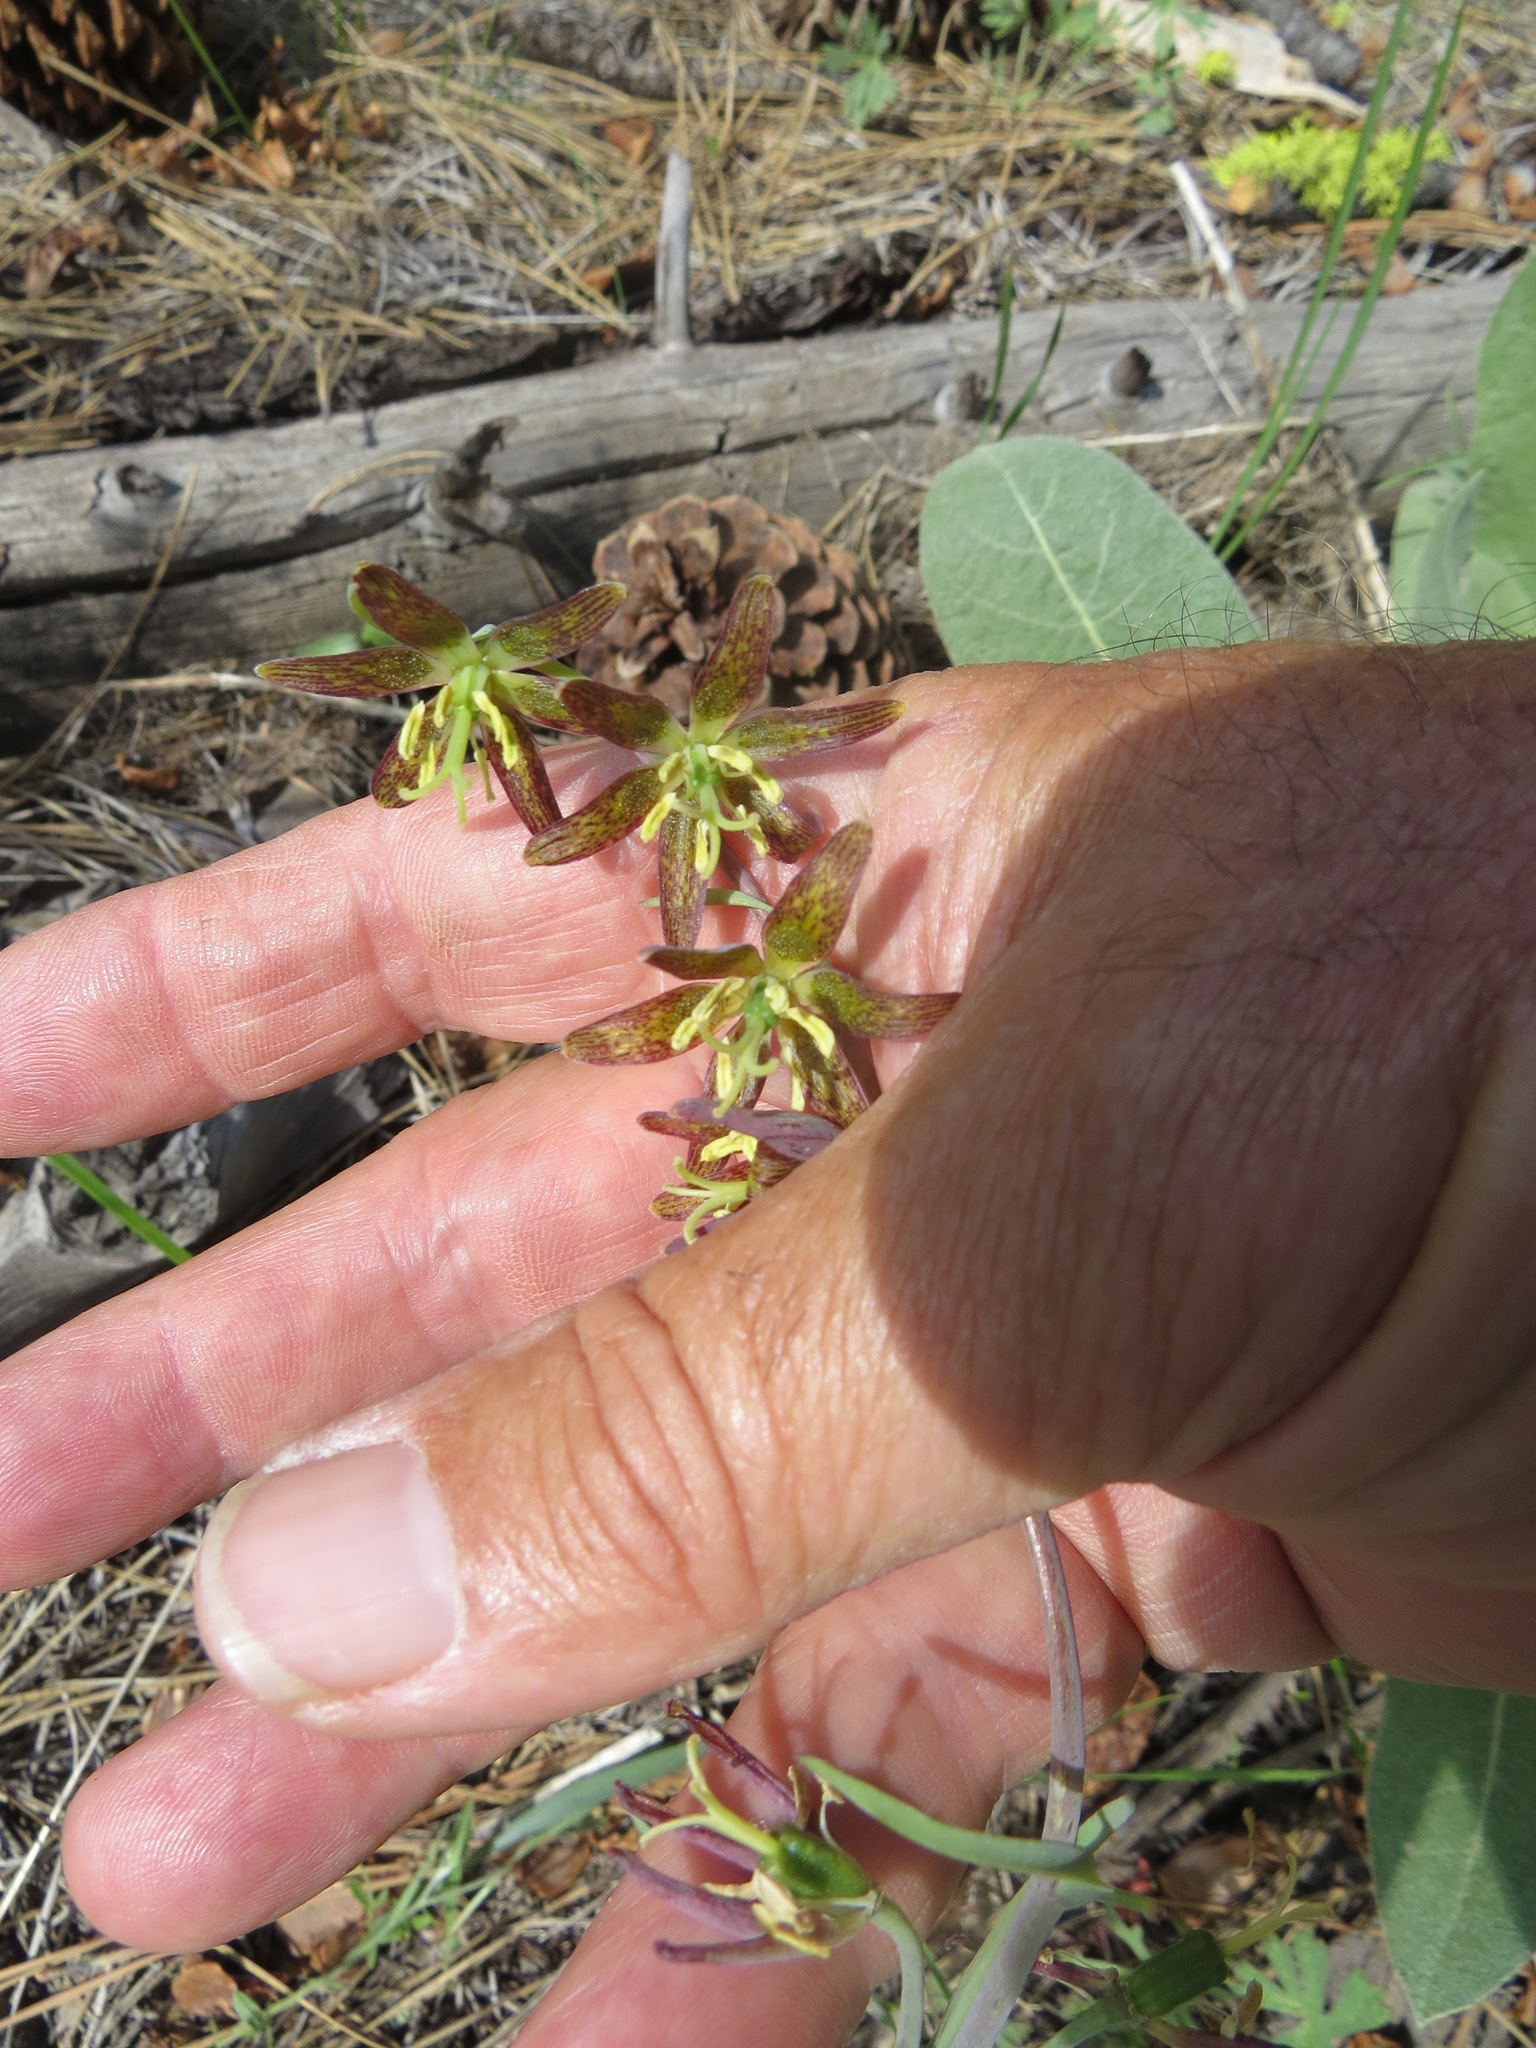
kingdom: Plantae
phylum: Tracheophyta
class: Liliopsida
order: Liliales
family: Liliaceae
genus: Fritillaria
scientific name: Fritillaria atropurpurea
